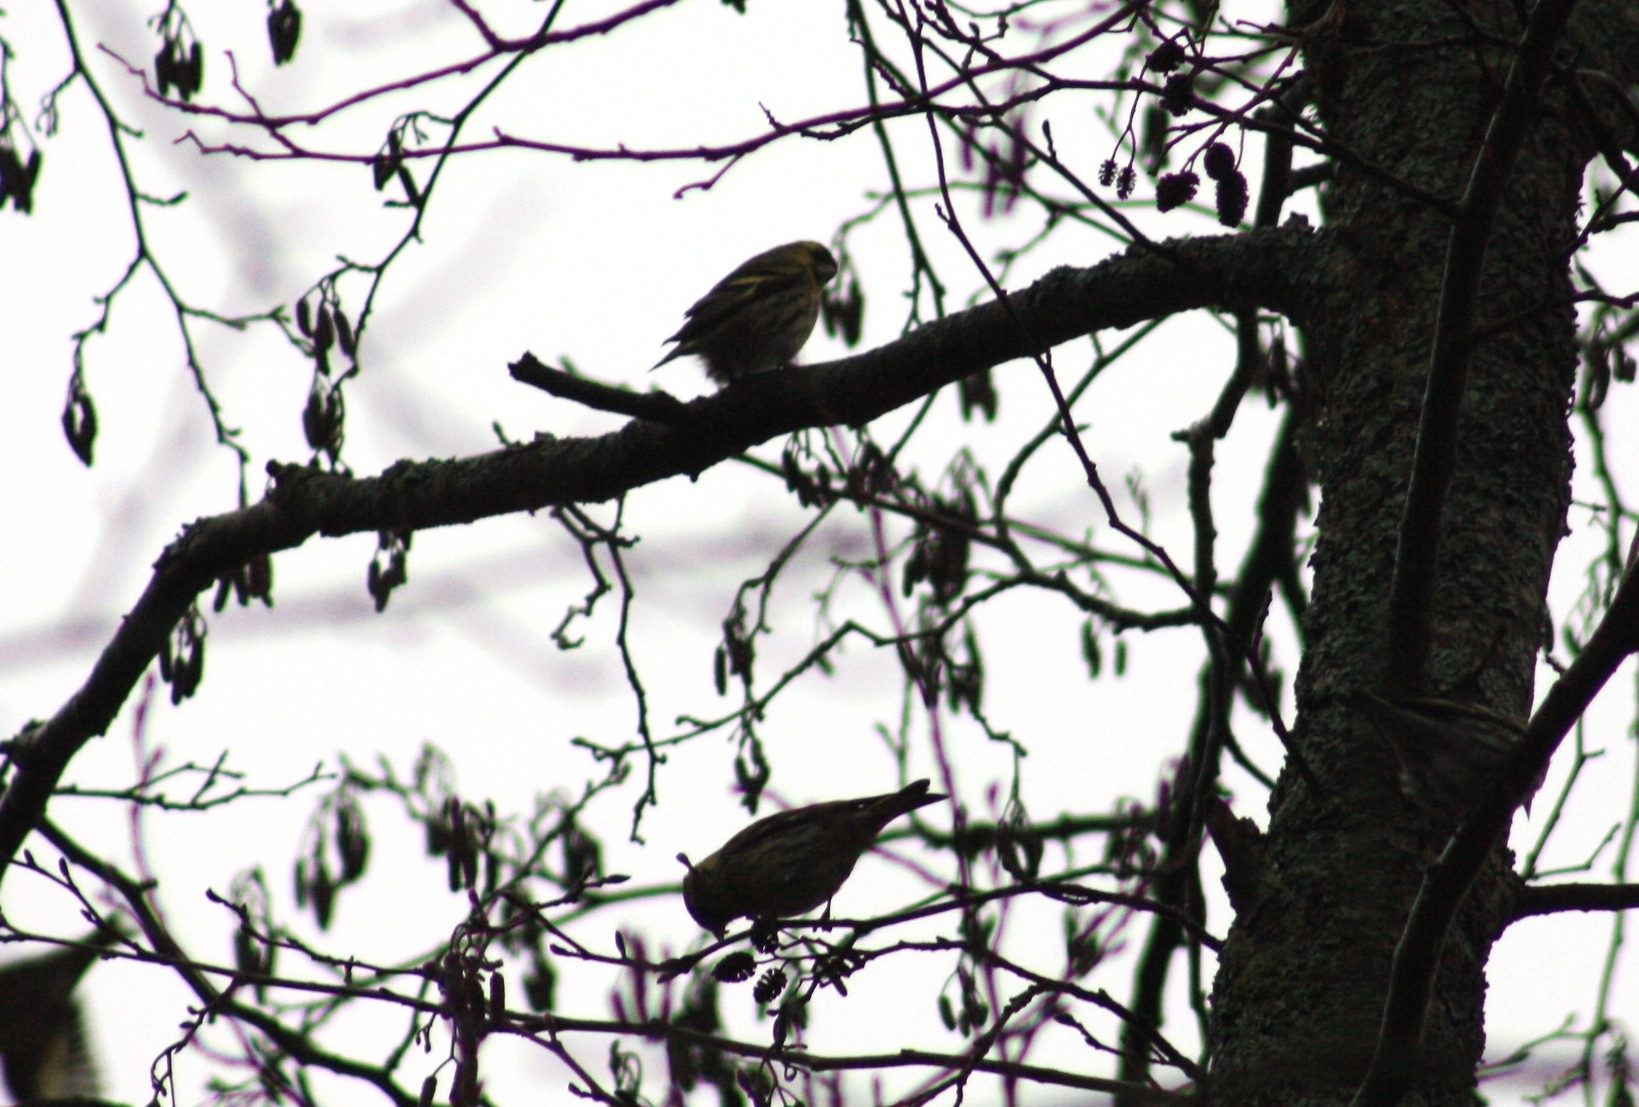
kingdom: Animalia
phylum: Chordata
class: Aves
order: Passeriformes
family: Fringillidae
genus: Spinus
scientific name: Spinus spinus
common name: Eurasian siskin
